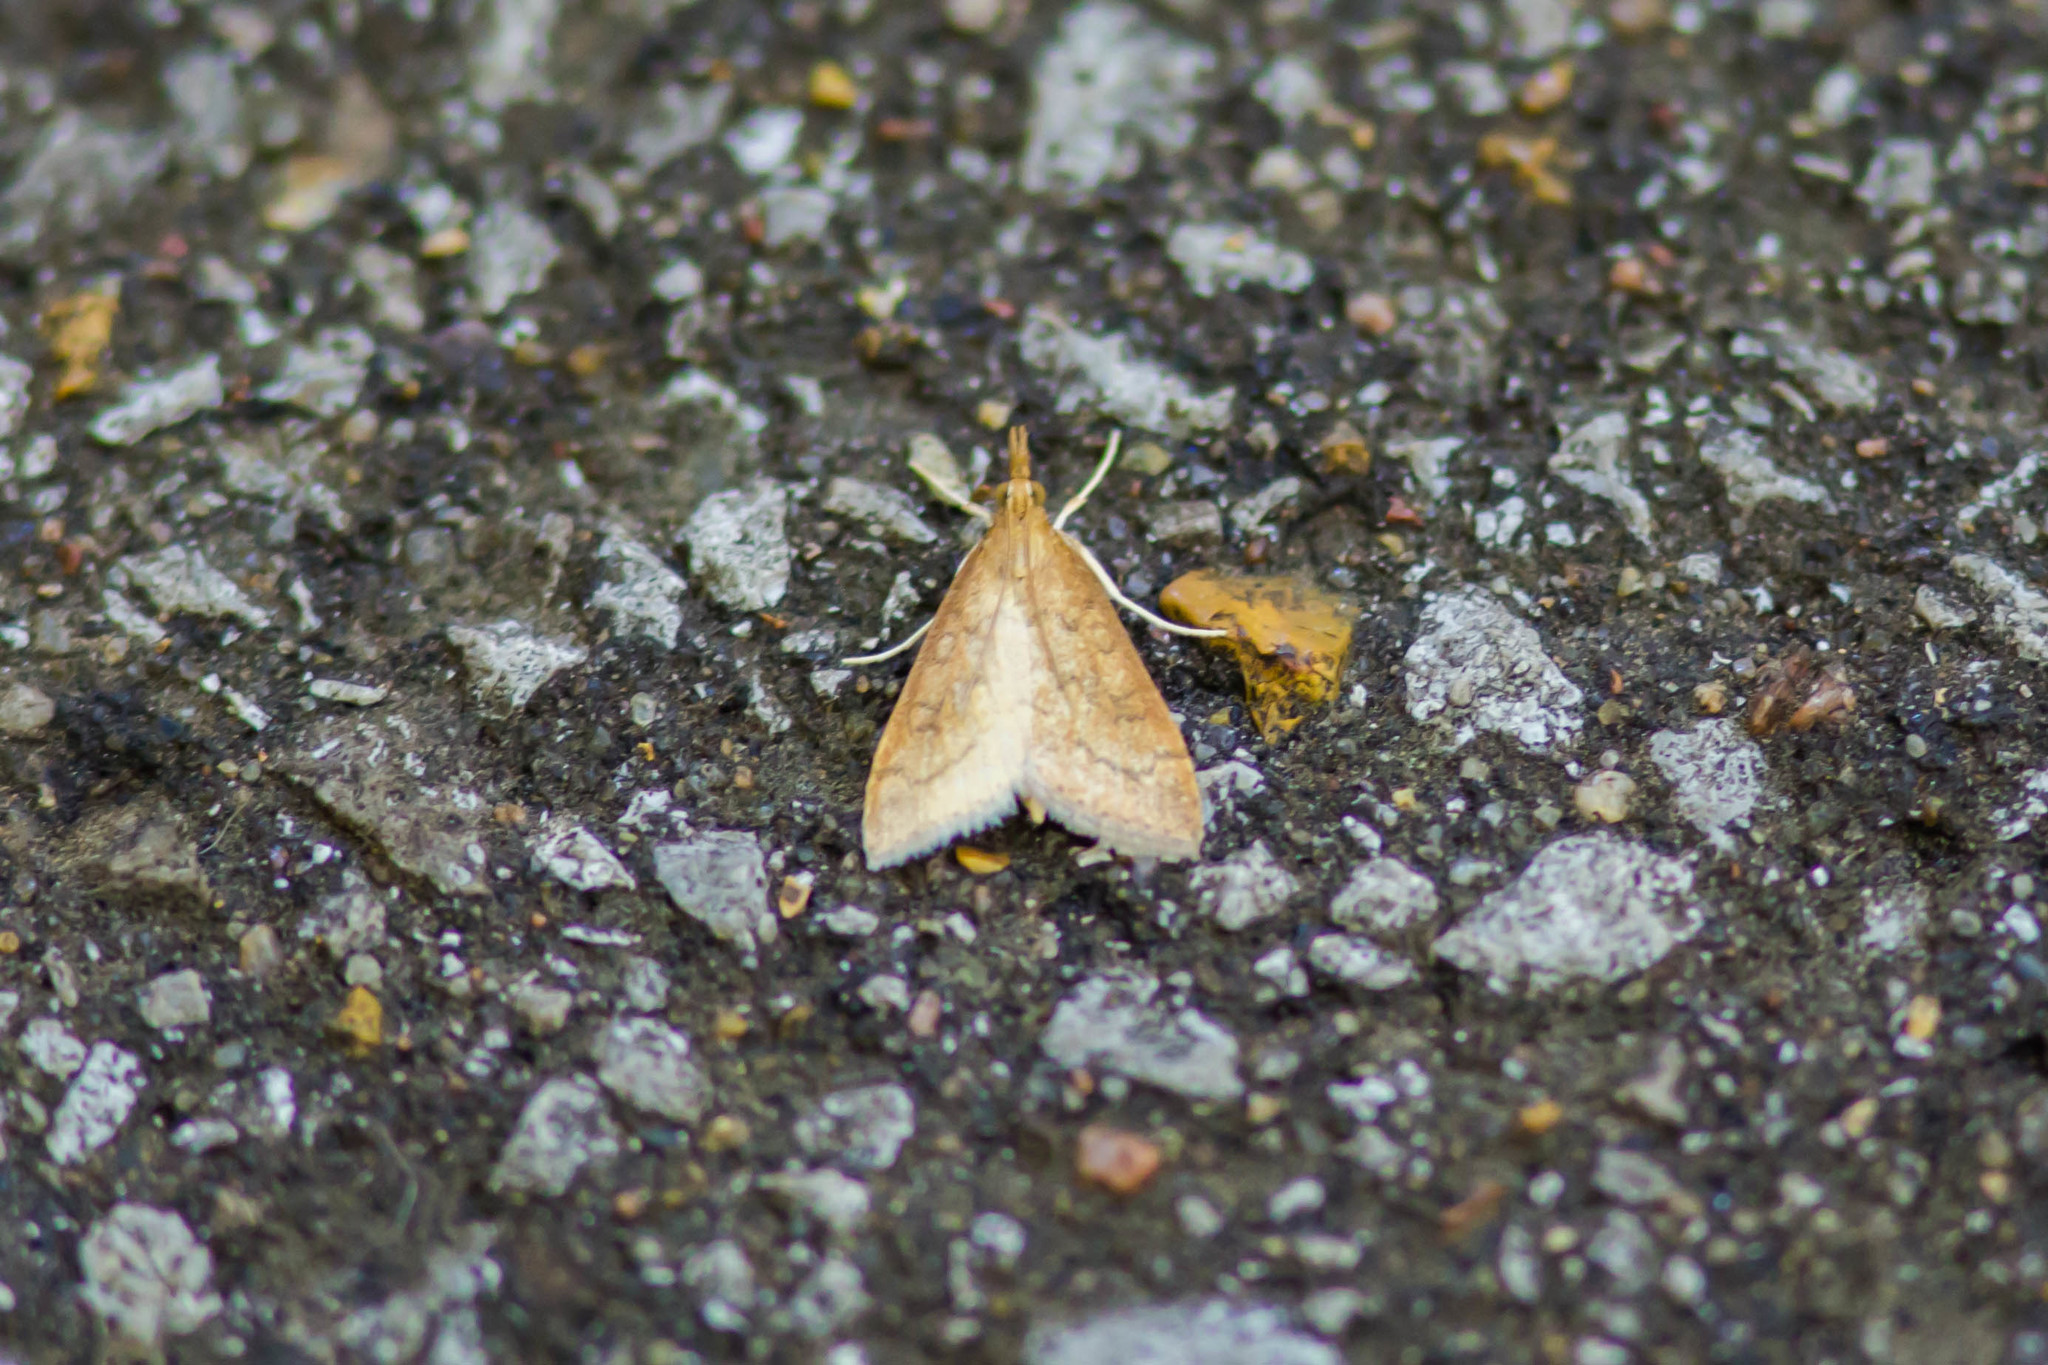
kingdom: Animalia
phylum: Arthropoda
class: Insecta
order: Lepidoptera
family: Crambidae
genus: Udea
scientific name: Udea rubigalis
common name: Celery leaftier moth
